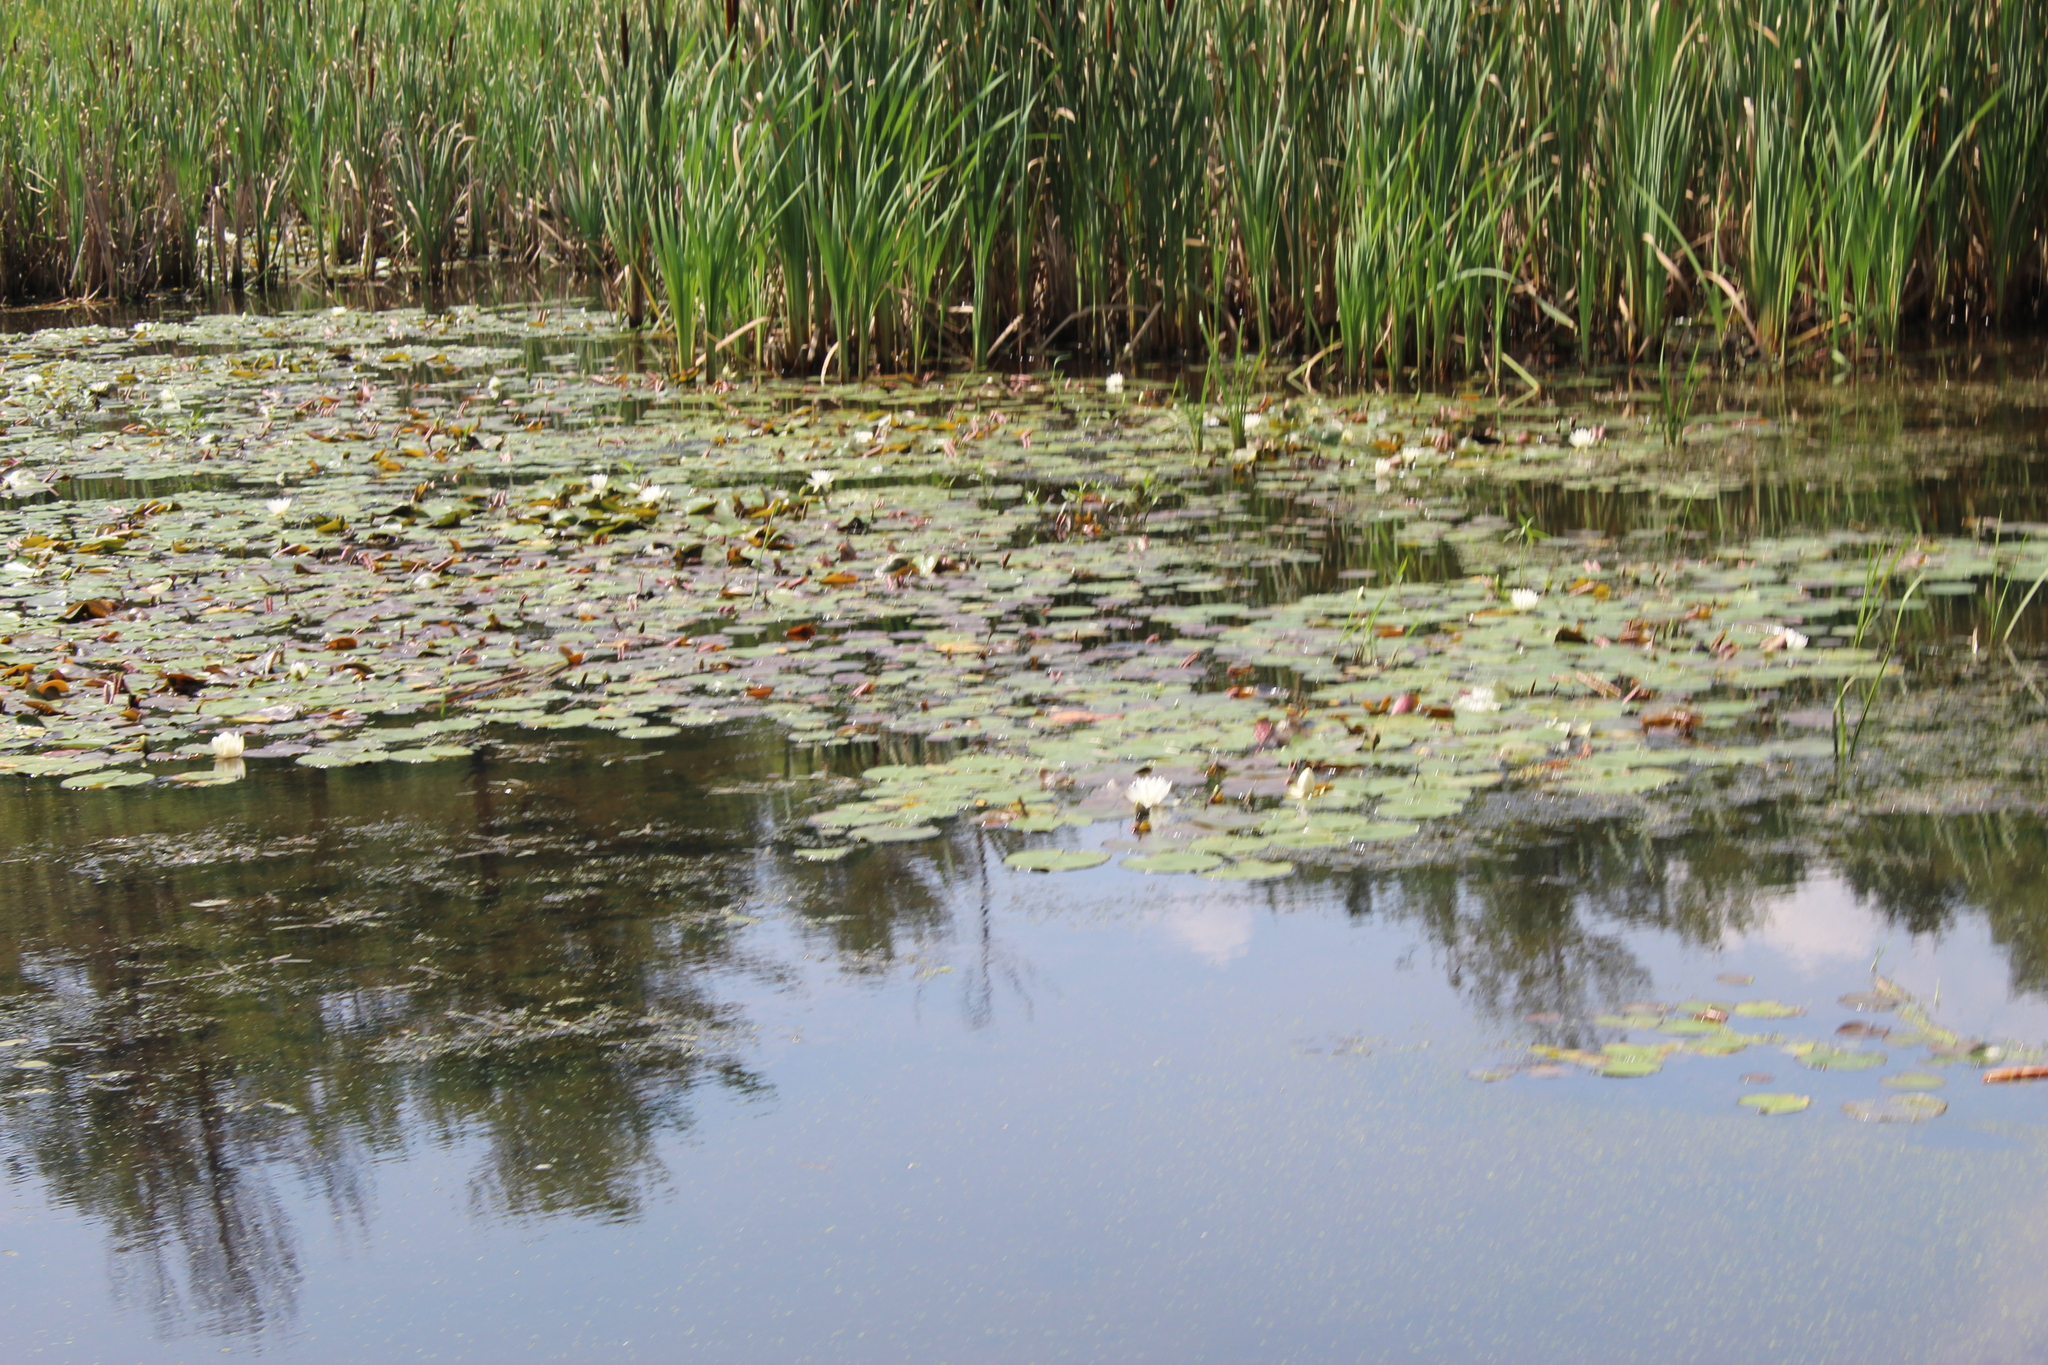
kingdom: Plantae
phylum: Tracheophyta
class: Magnoliopsida
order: Nymphaeales
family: Nymphaeaceae
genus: Nymphaea
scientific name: Nymphaea odorata
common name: Fragrant water-lily
